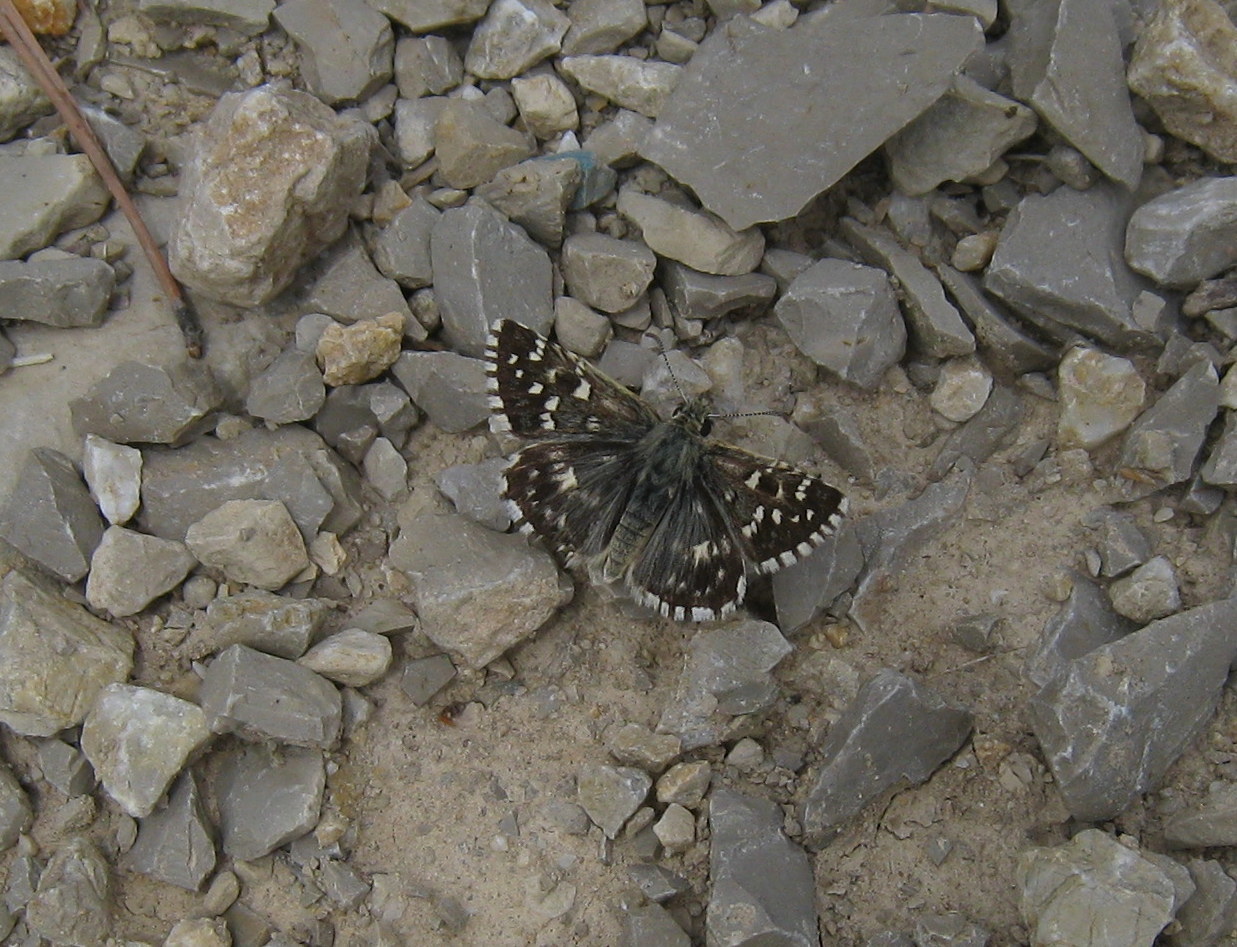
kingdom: Animalia
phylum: Arthropoda
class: Insecta
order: Lepidoptera
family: Hesperiidae
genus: Pyrgus
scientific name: Pyrgus malvoides
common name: Southern grizzled skipper
